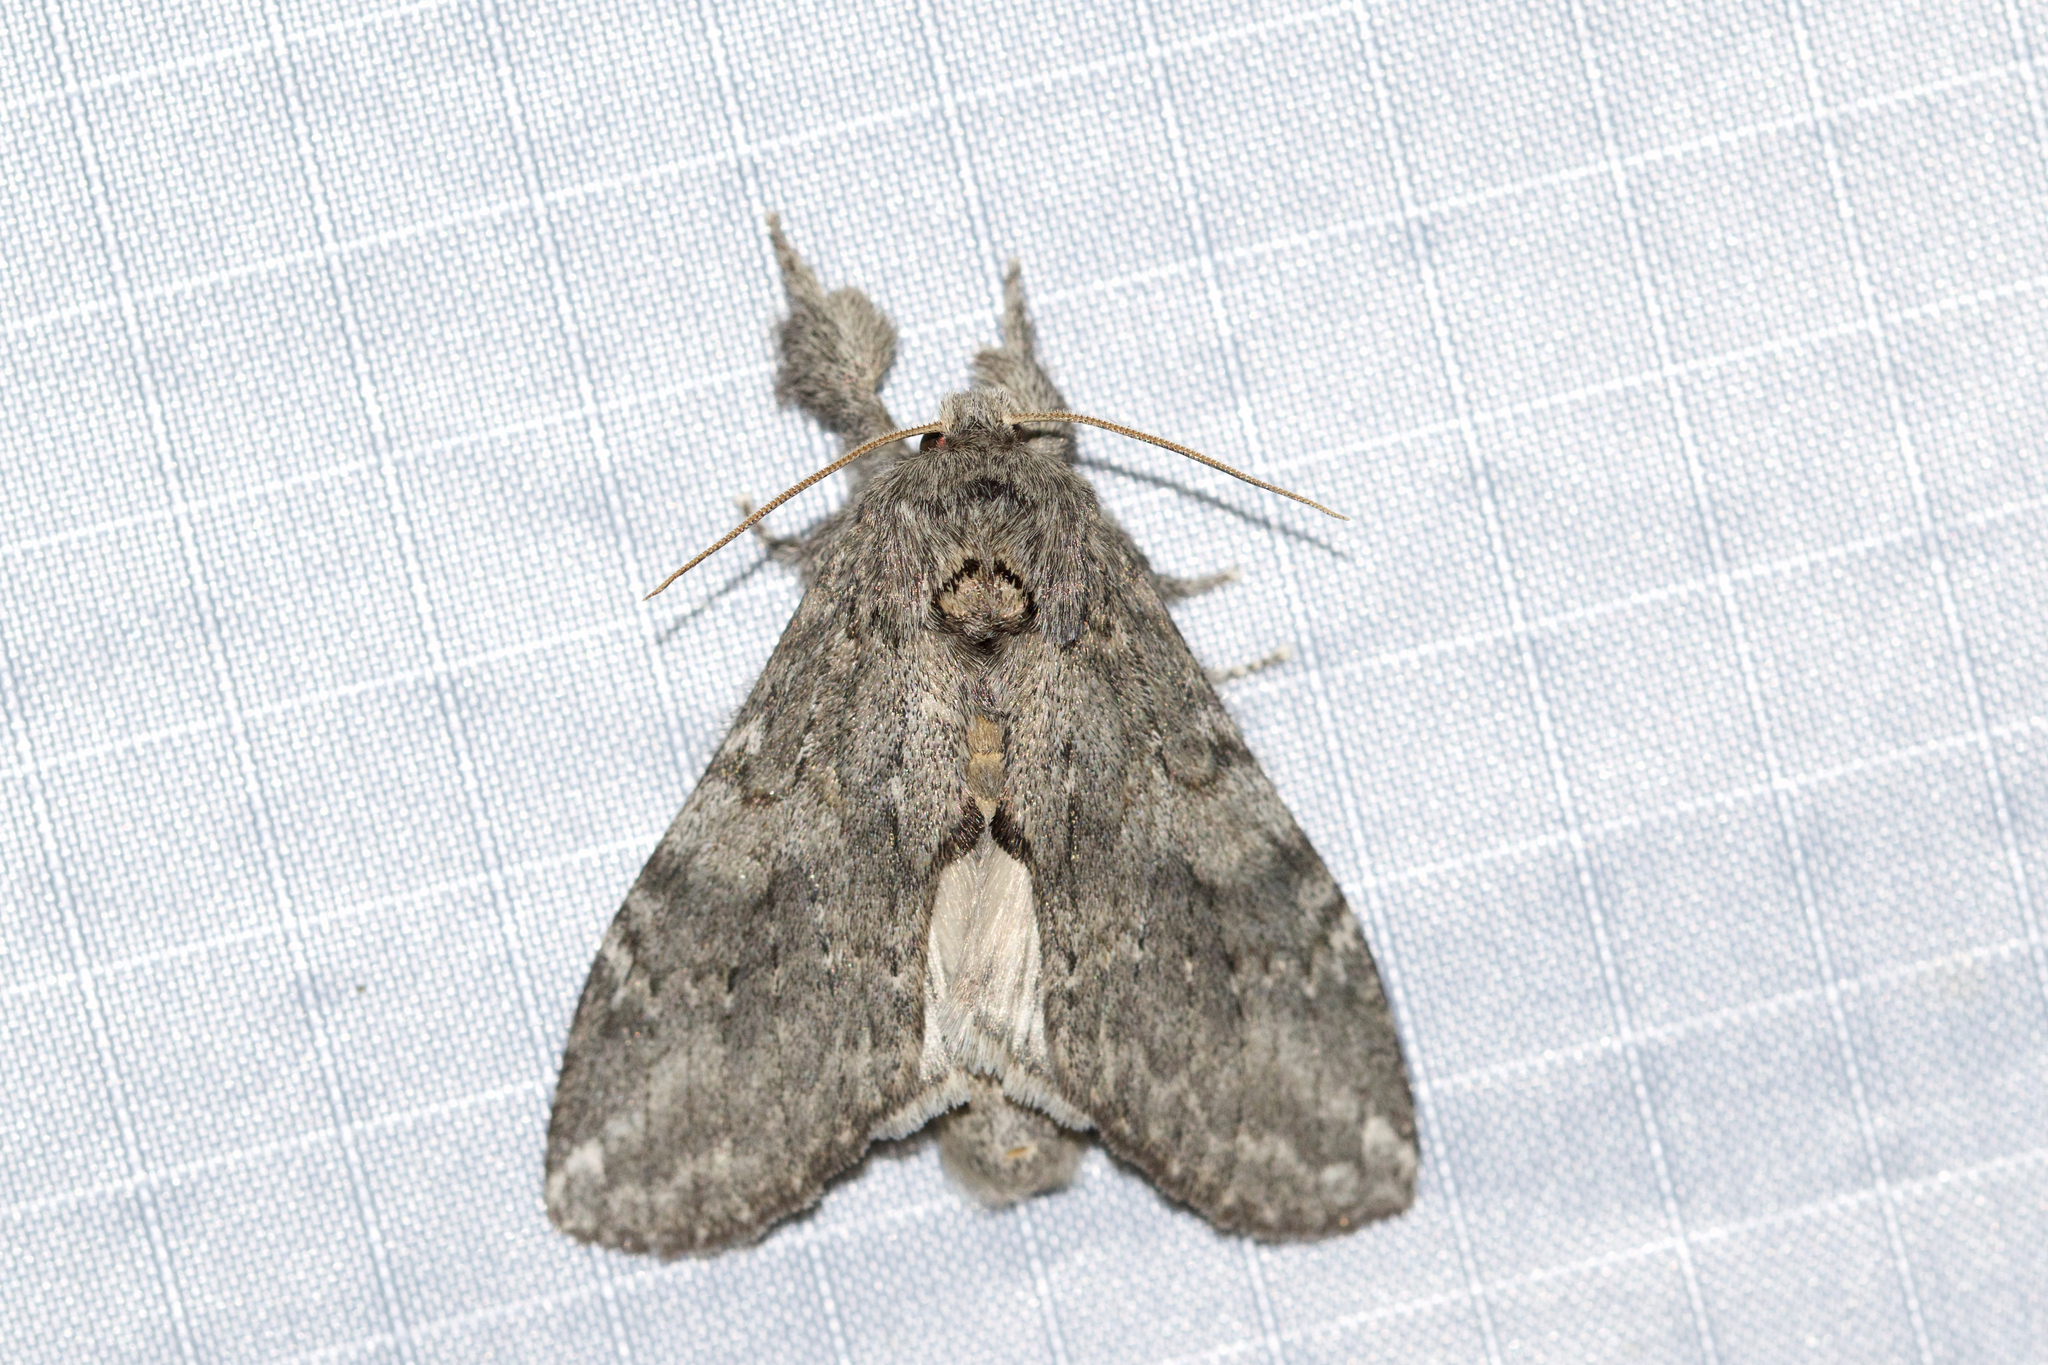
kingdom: Animalia
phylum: Arthropoda
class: Insecta
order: Lepidoptera
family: Notodontidae
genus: Peridea
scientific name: Peridea angulosa
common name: Angulose prominent
